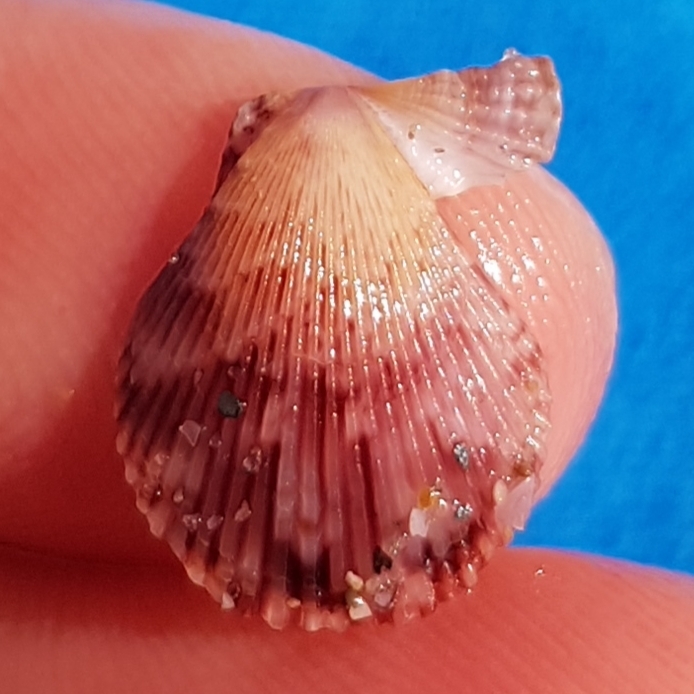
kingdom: Animalia
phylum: Mollusca
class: Bivalvia
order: Pectinida
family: Pectinidae
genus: Mimachlamys
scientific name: Mimachlamys varia
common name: Variegated scallop
